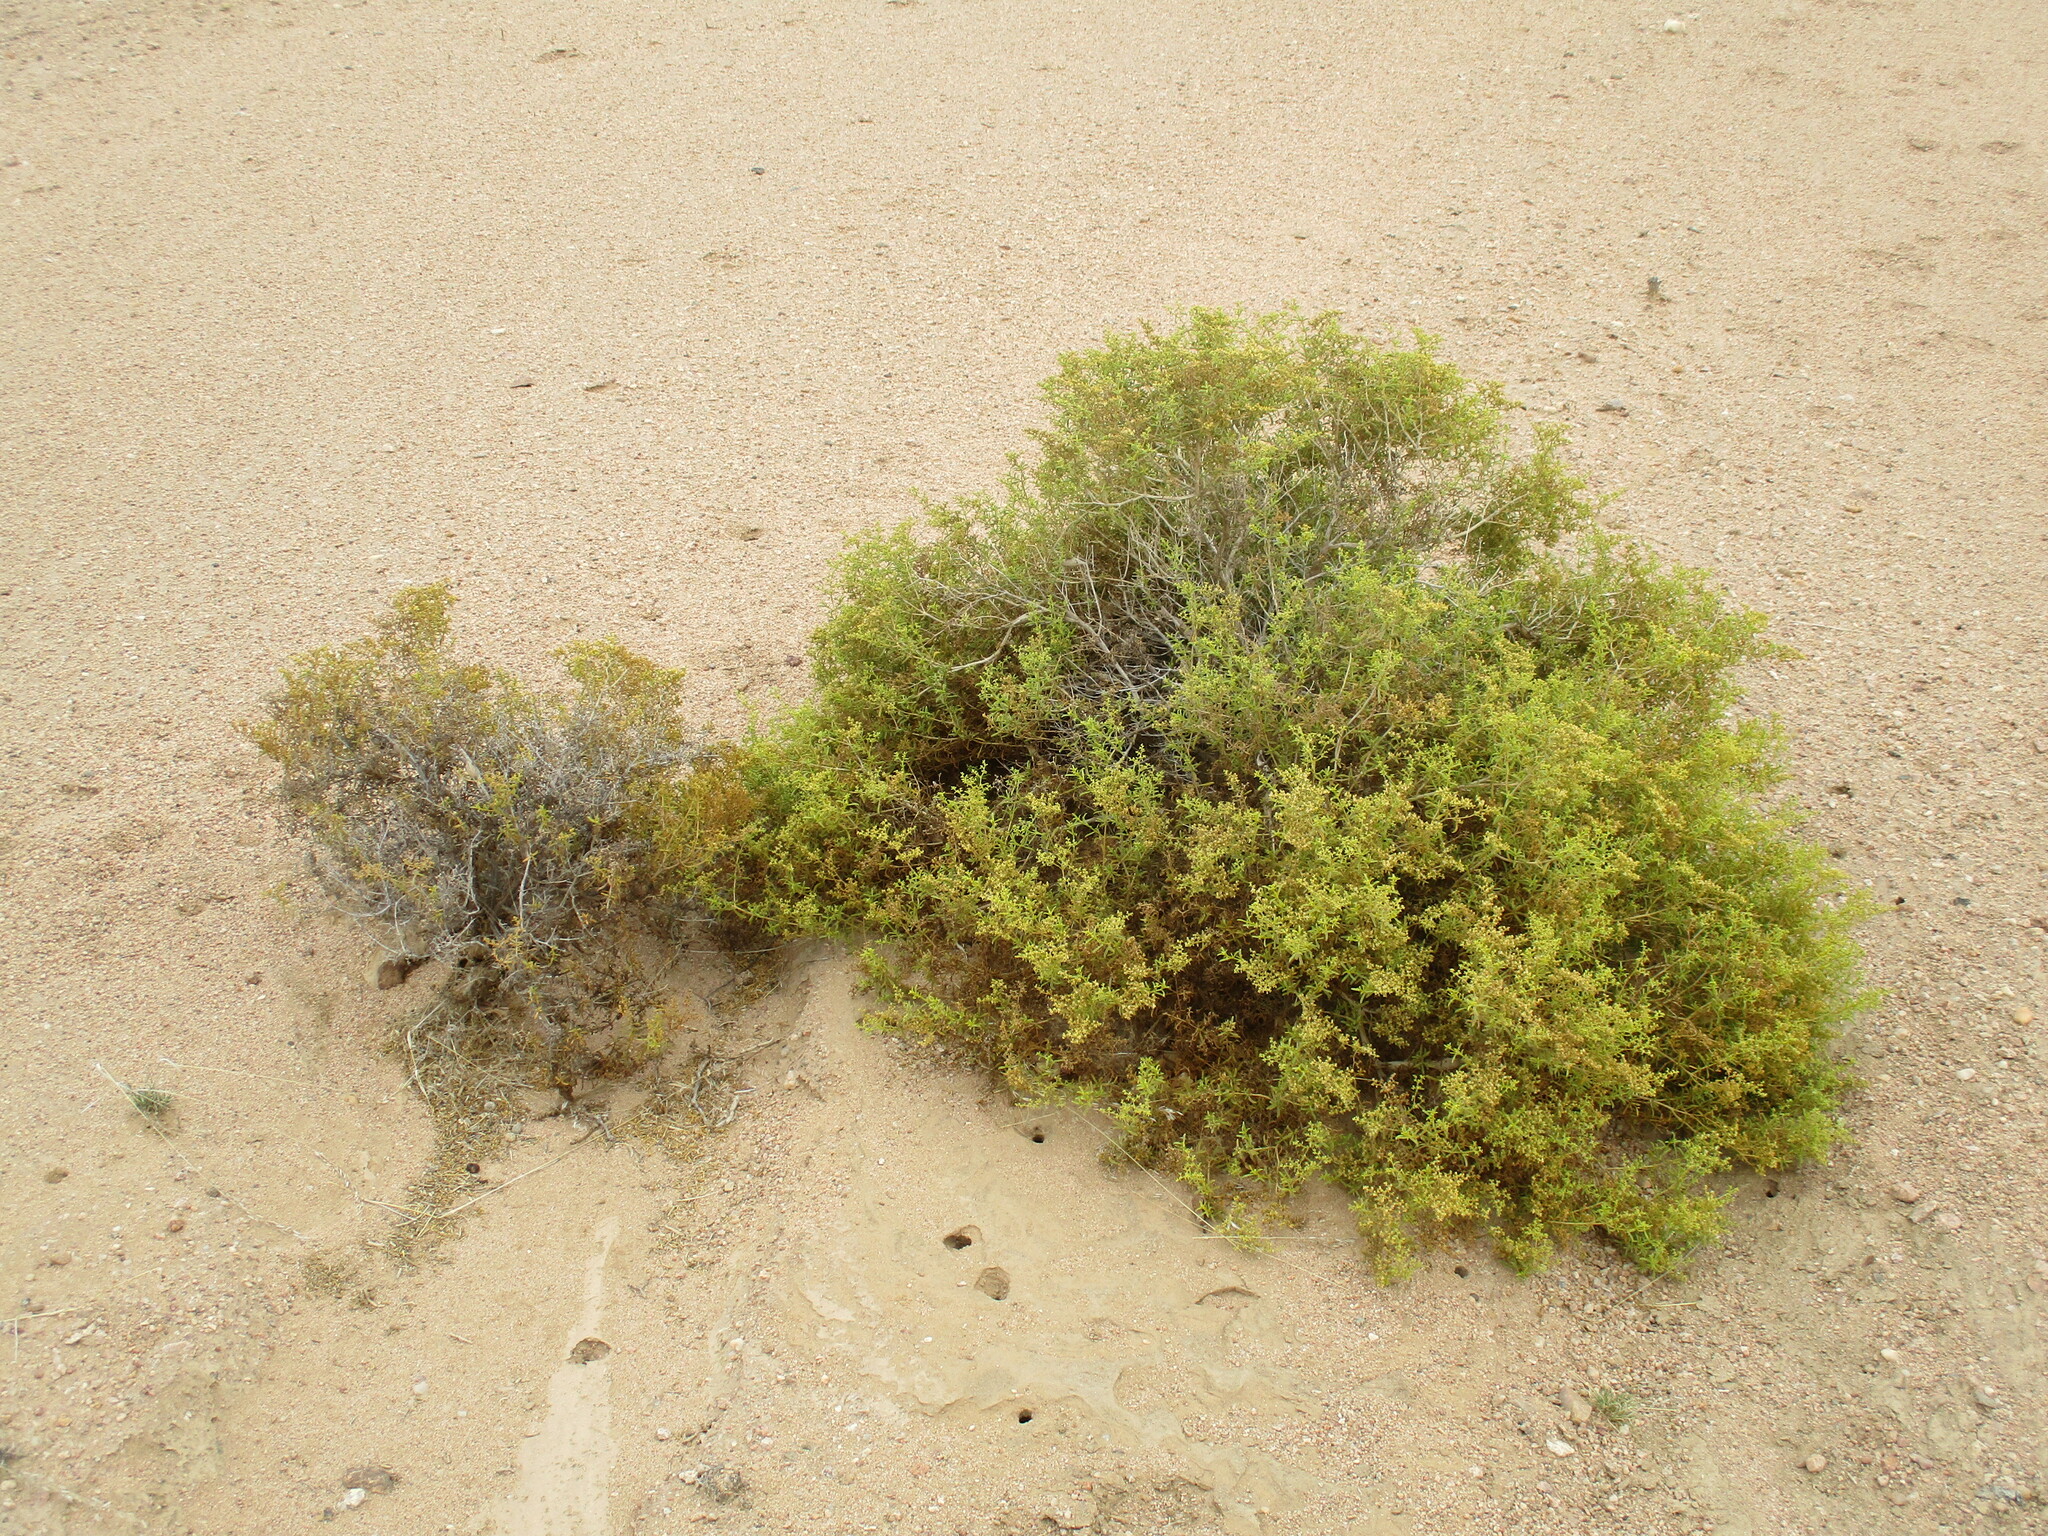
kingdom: Plantae
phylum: Tracheophyta
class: Magnoliopsida
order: Caryophyllales
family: Aizoaceae
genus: Aizoon
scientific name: Aizoon africanum
